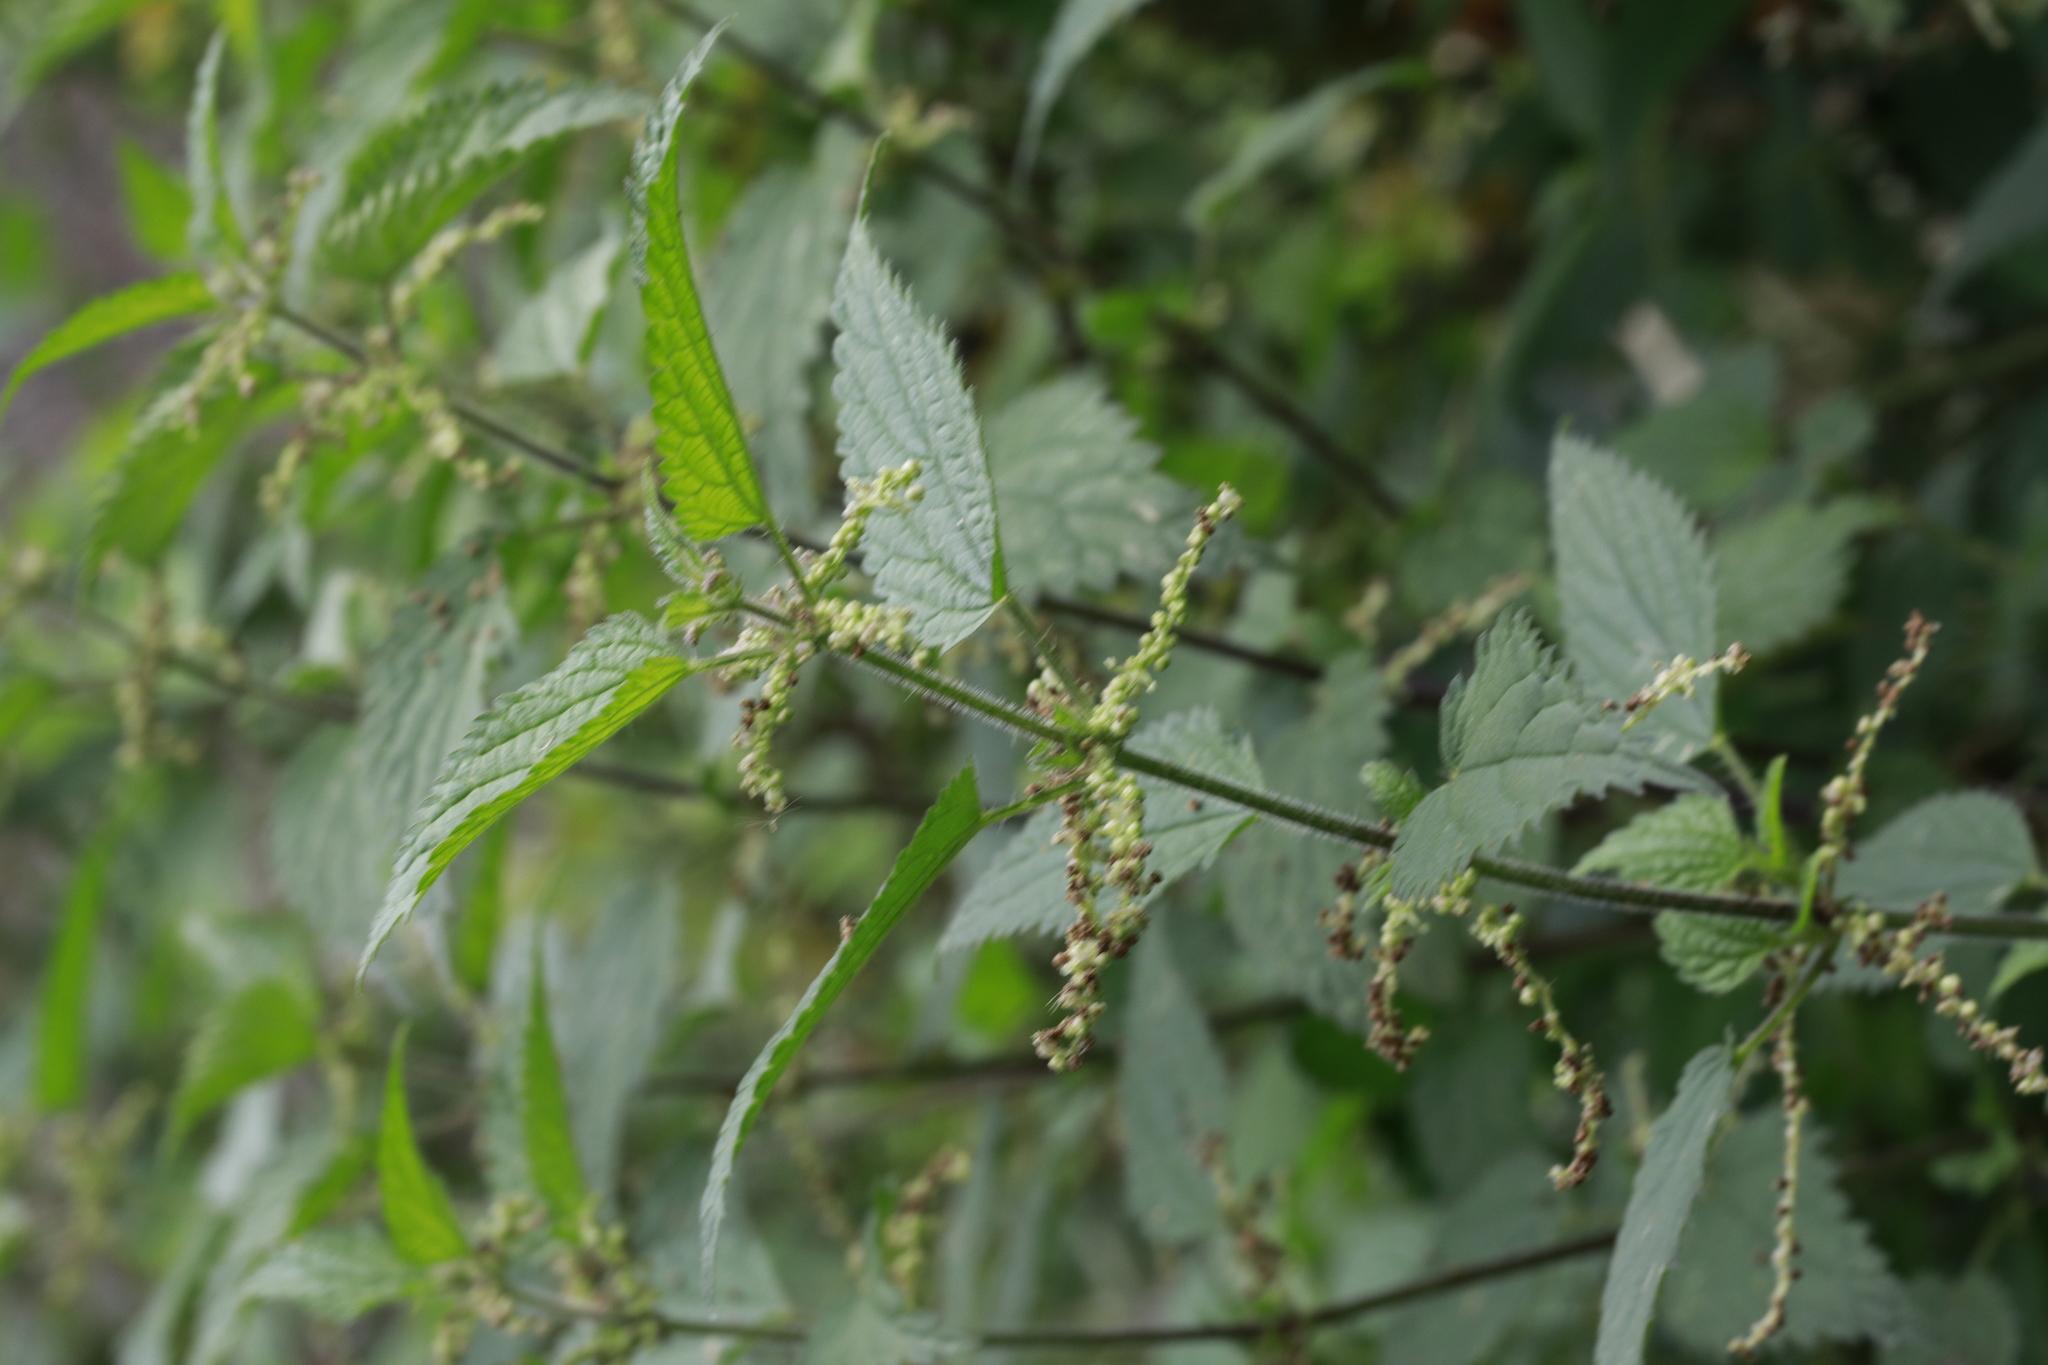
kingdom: Plantae
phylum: Tracheophyta
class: Magnoliopsida
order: Rosales
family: Urticaceae
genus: Urtica
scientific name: Urtica dioica
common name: Common nettle
